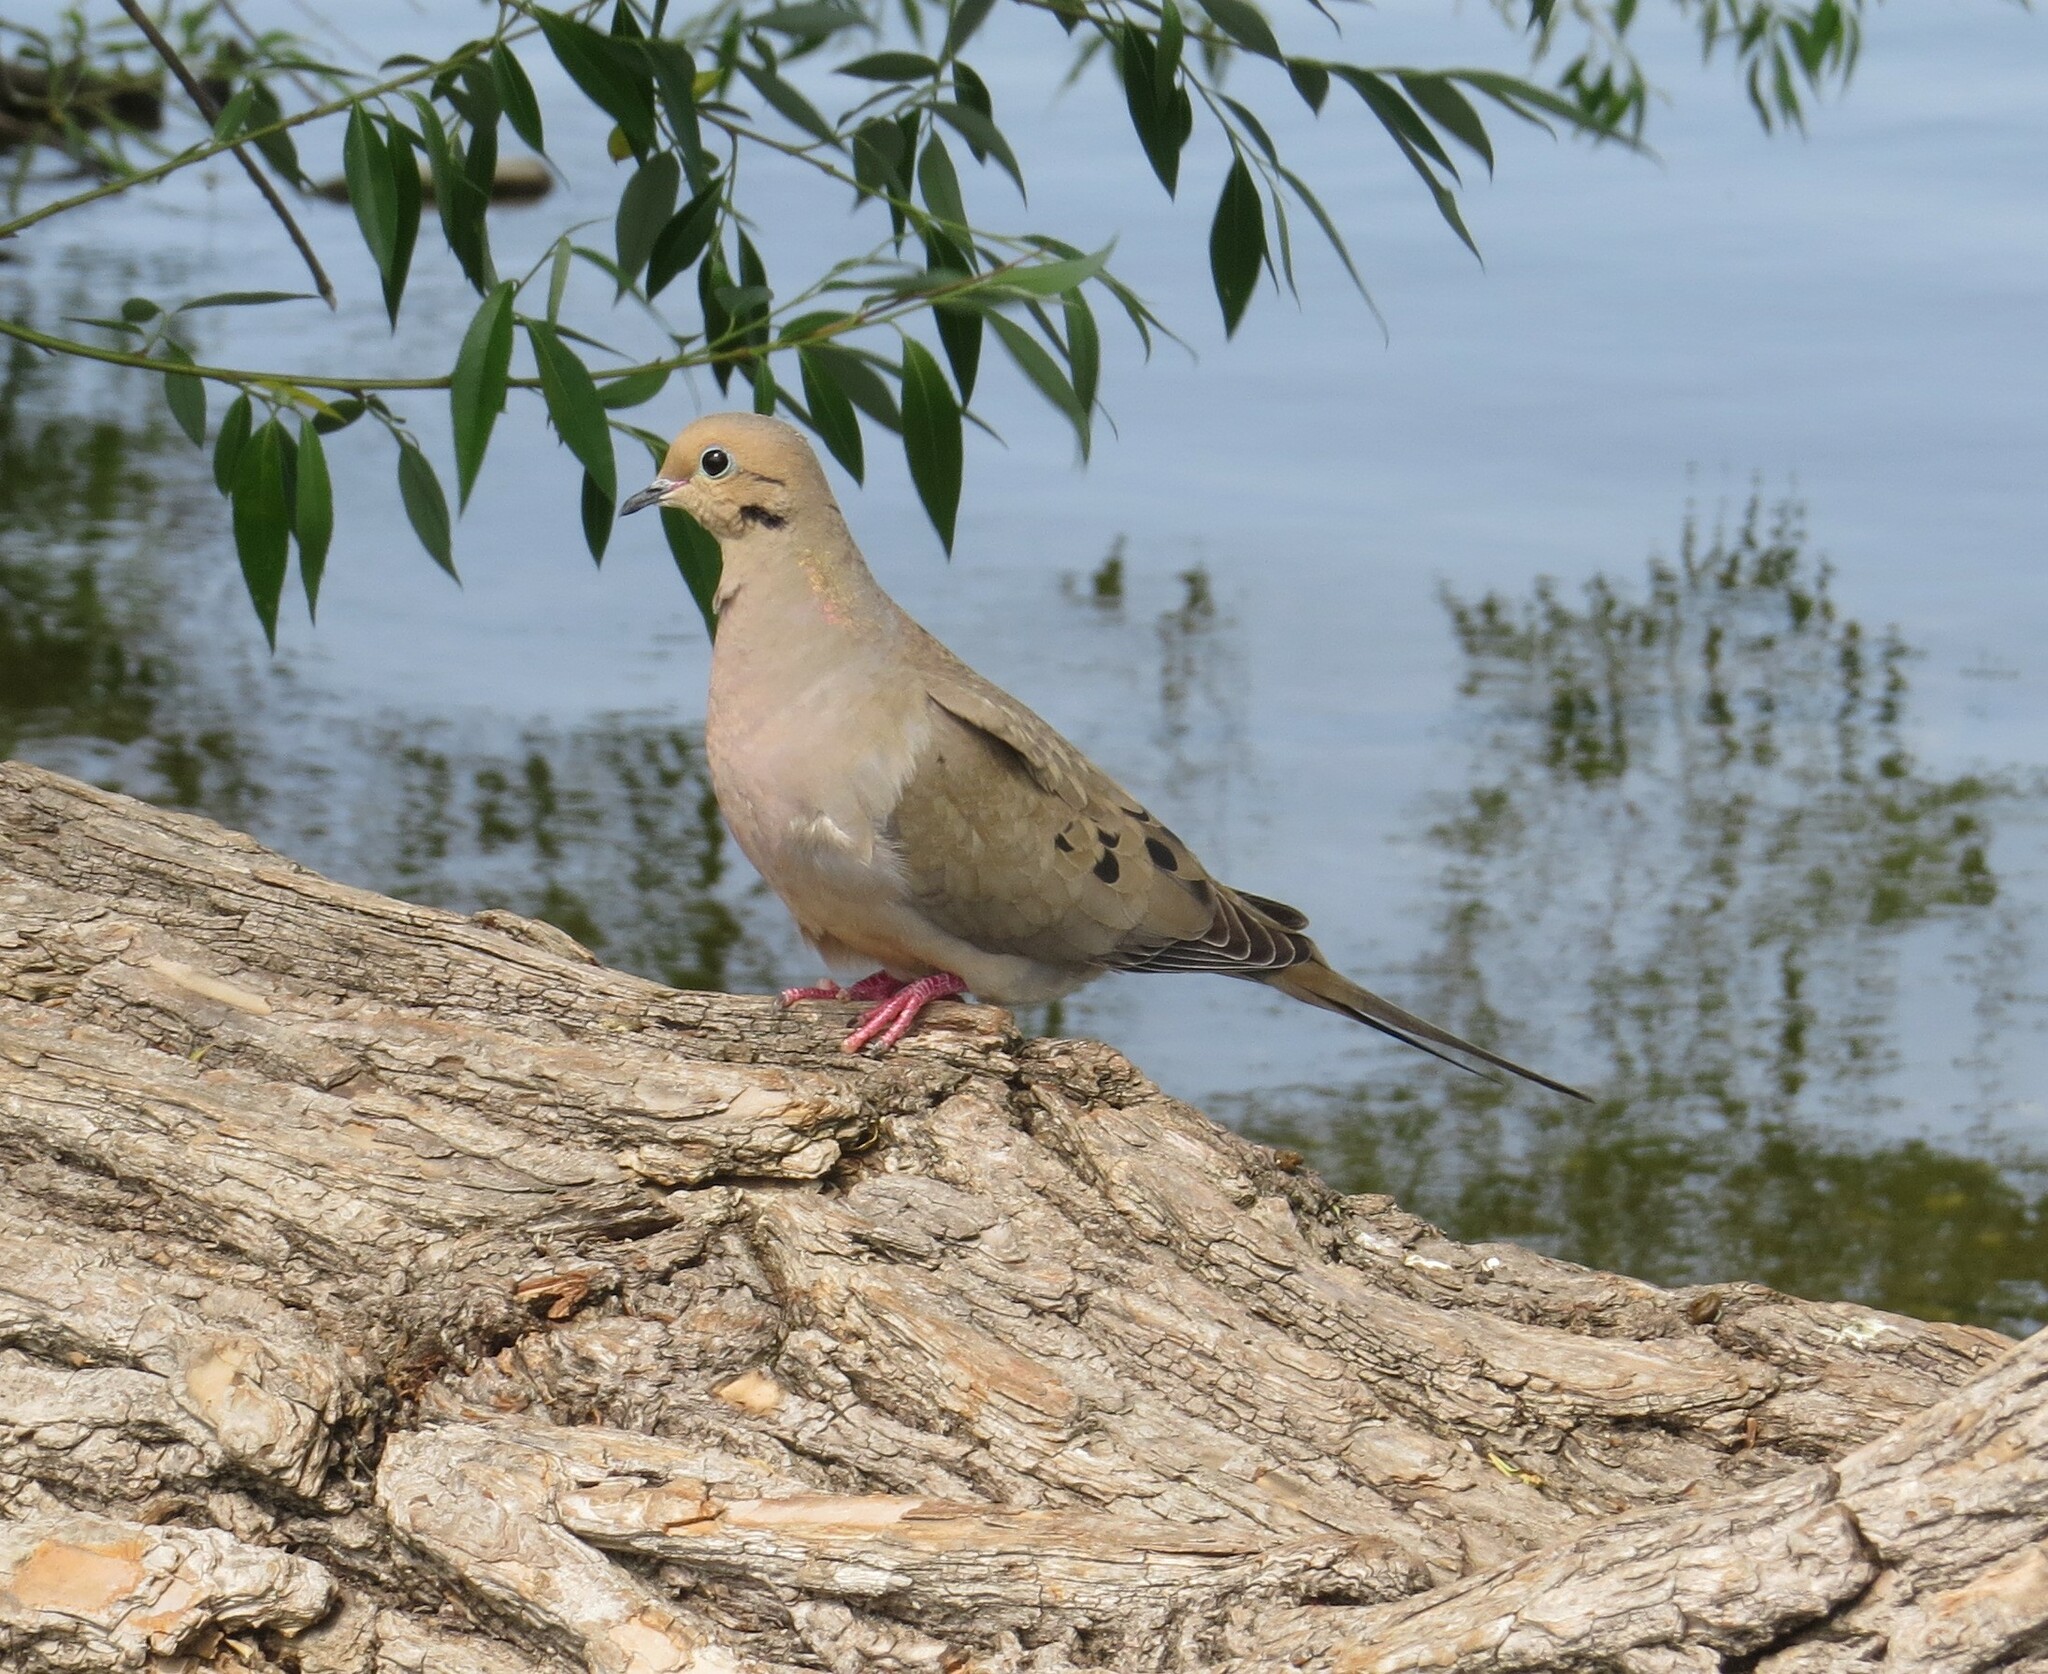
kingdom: Animalia
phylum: Chordata
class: Aves
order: Columbiformes
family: Columbidae
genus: Zenaida
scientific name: Zenaida macroura
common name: Mourning dove
